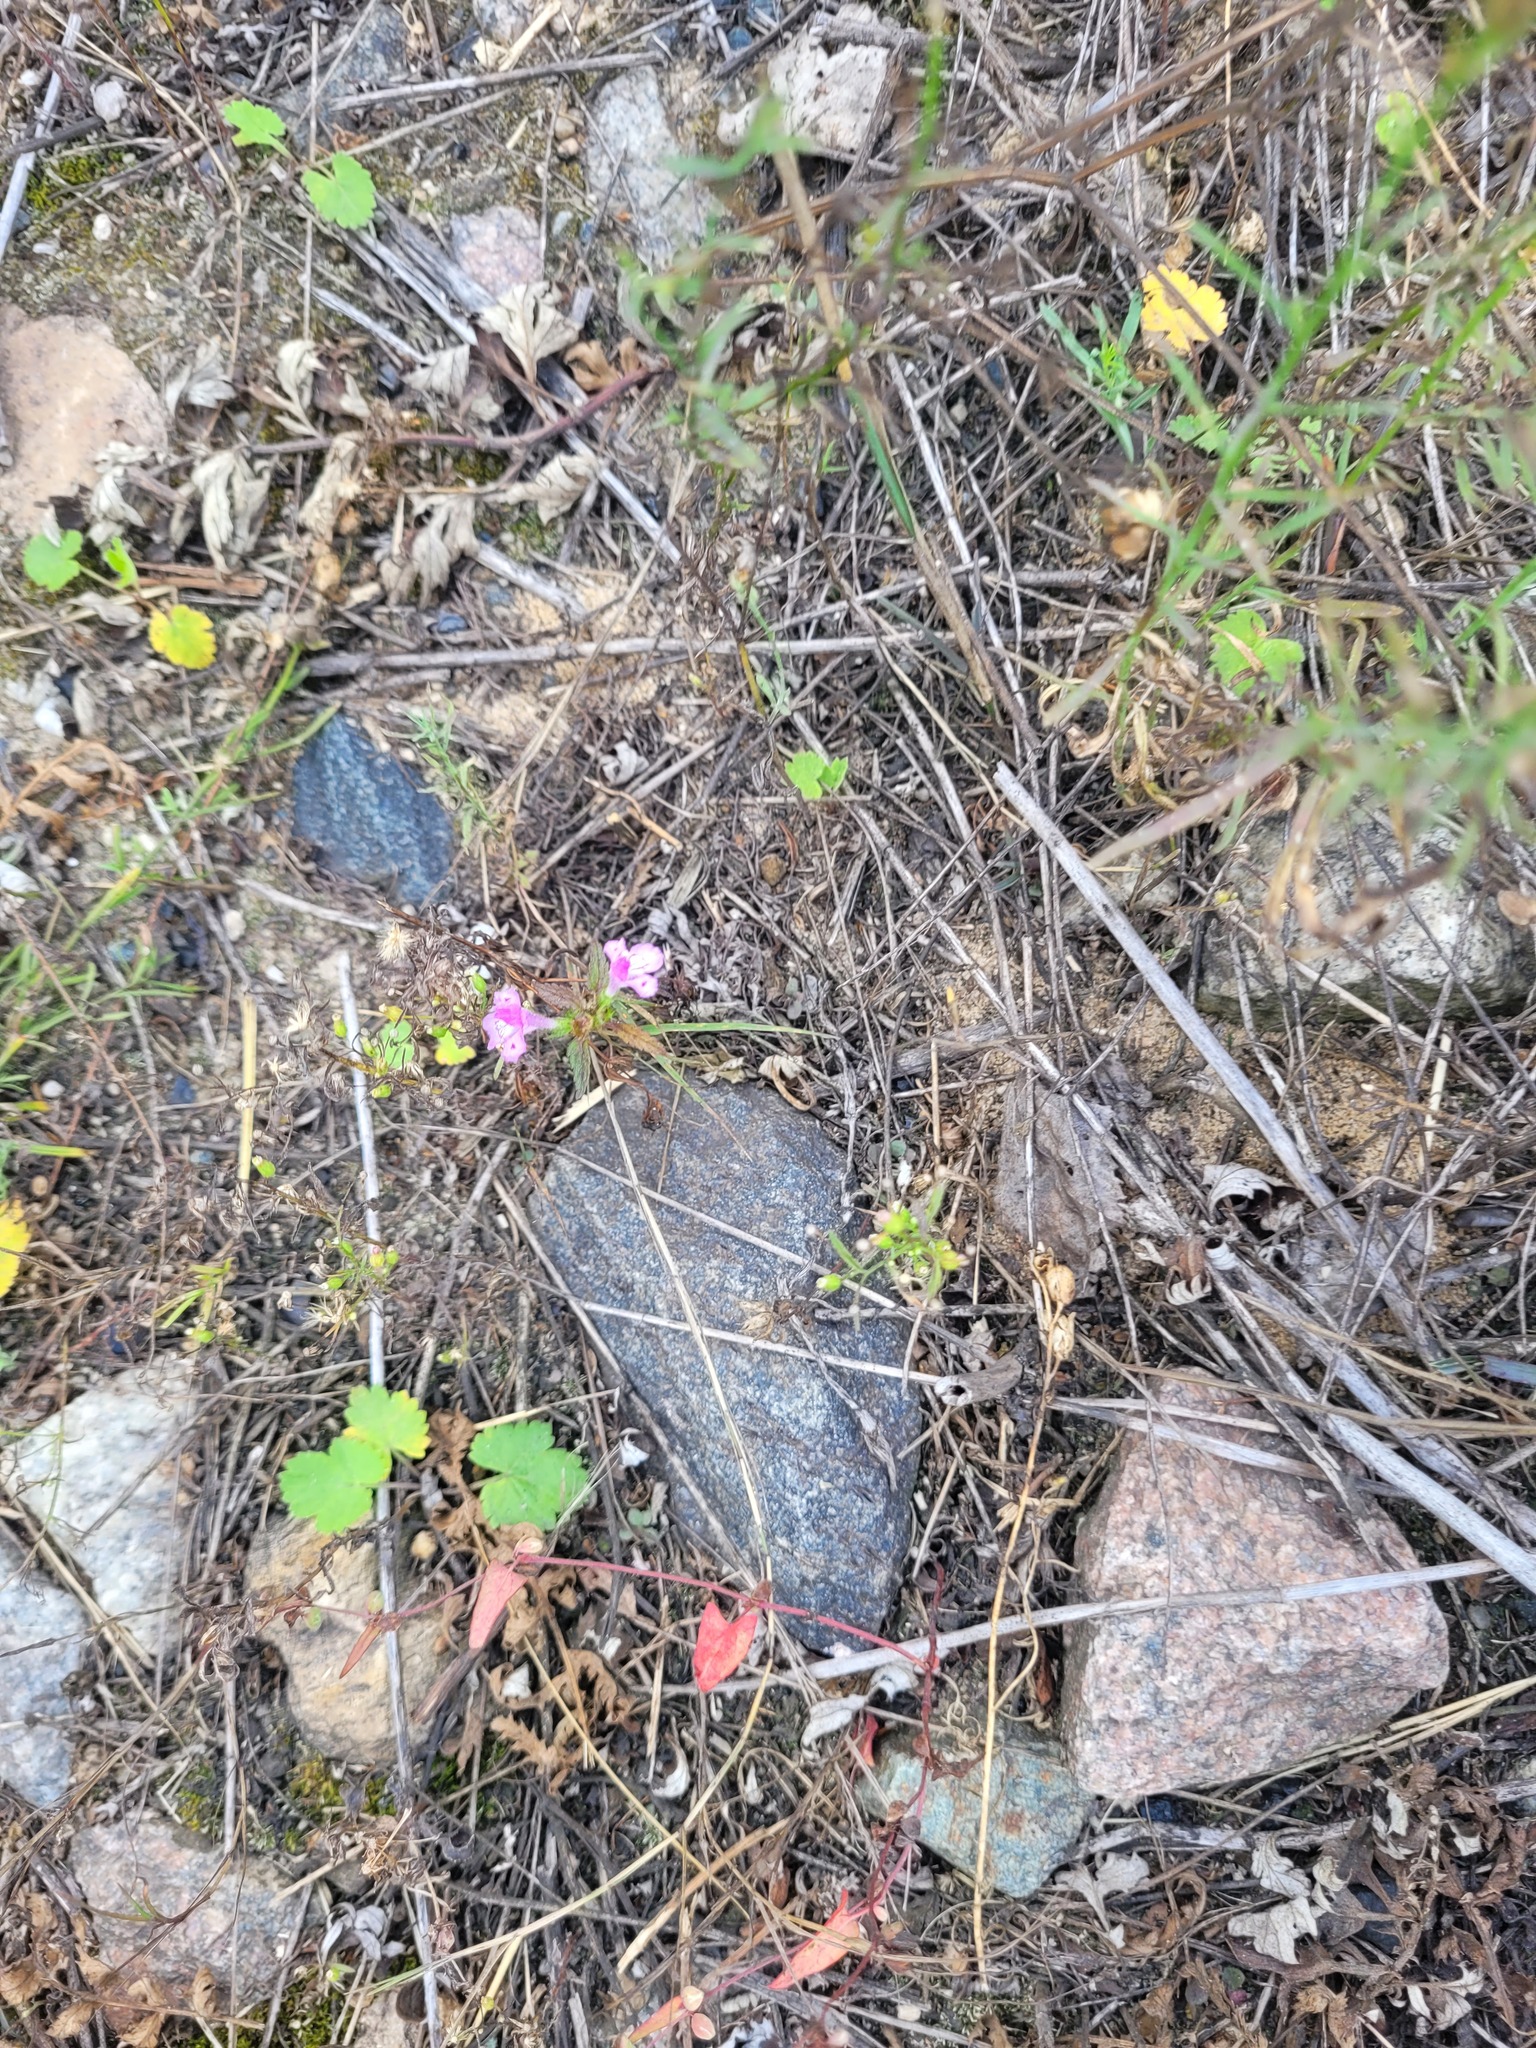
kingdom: Plantae
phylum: Tracheophyta
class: Magnoliopsida
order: Lamiales
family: Lamiaceae
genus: Galeopsis
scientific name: Galeopsis ladanum
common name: Broad-leaved hemp-nettle
